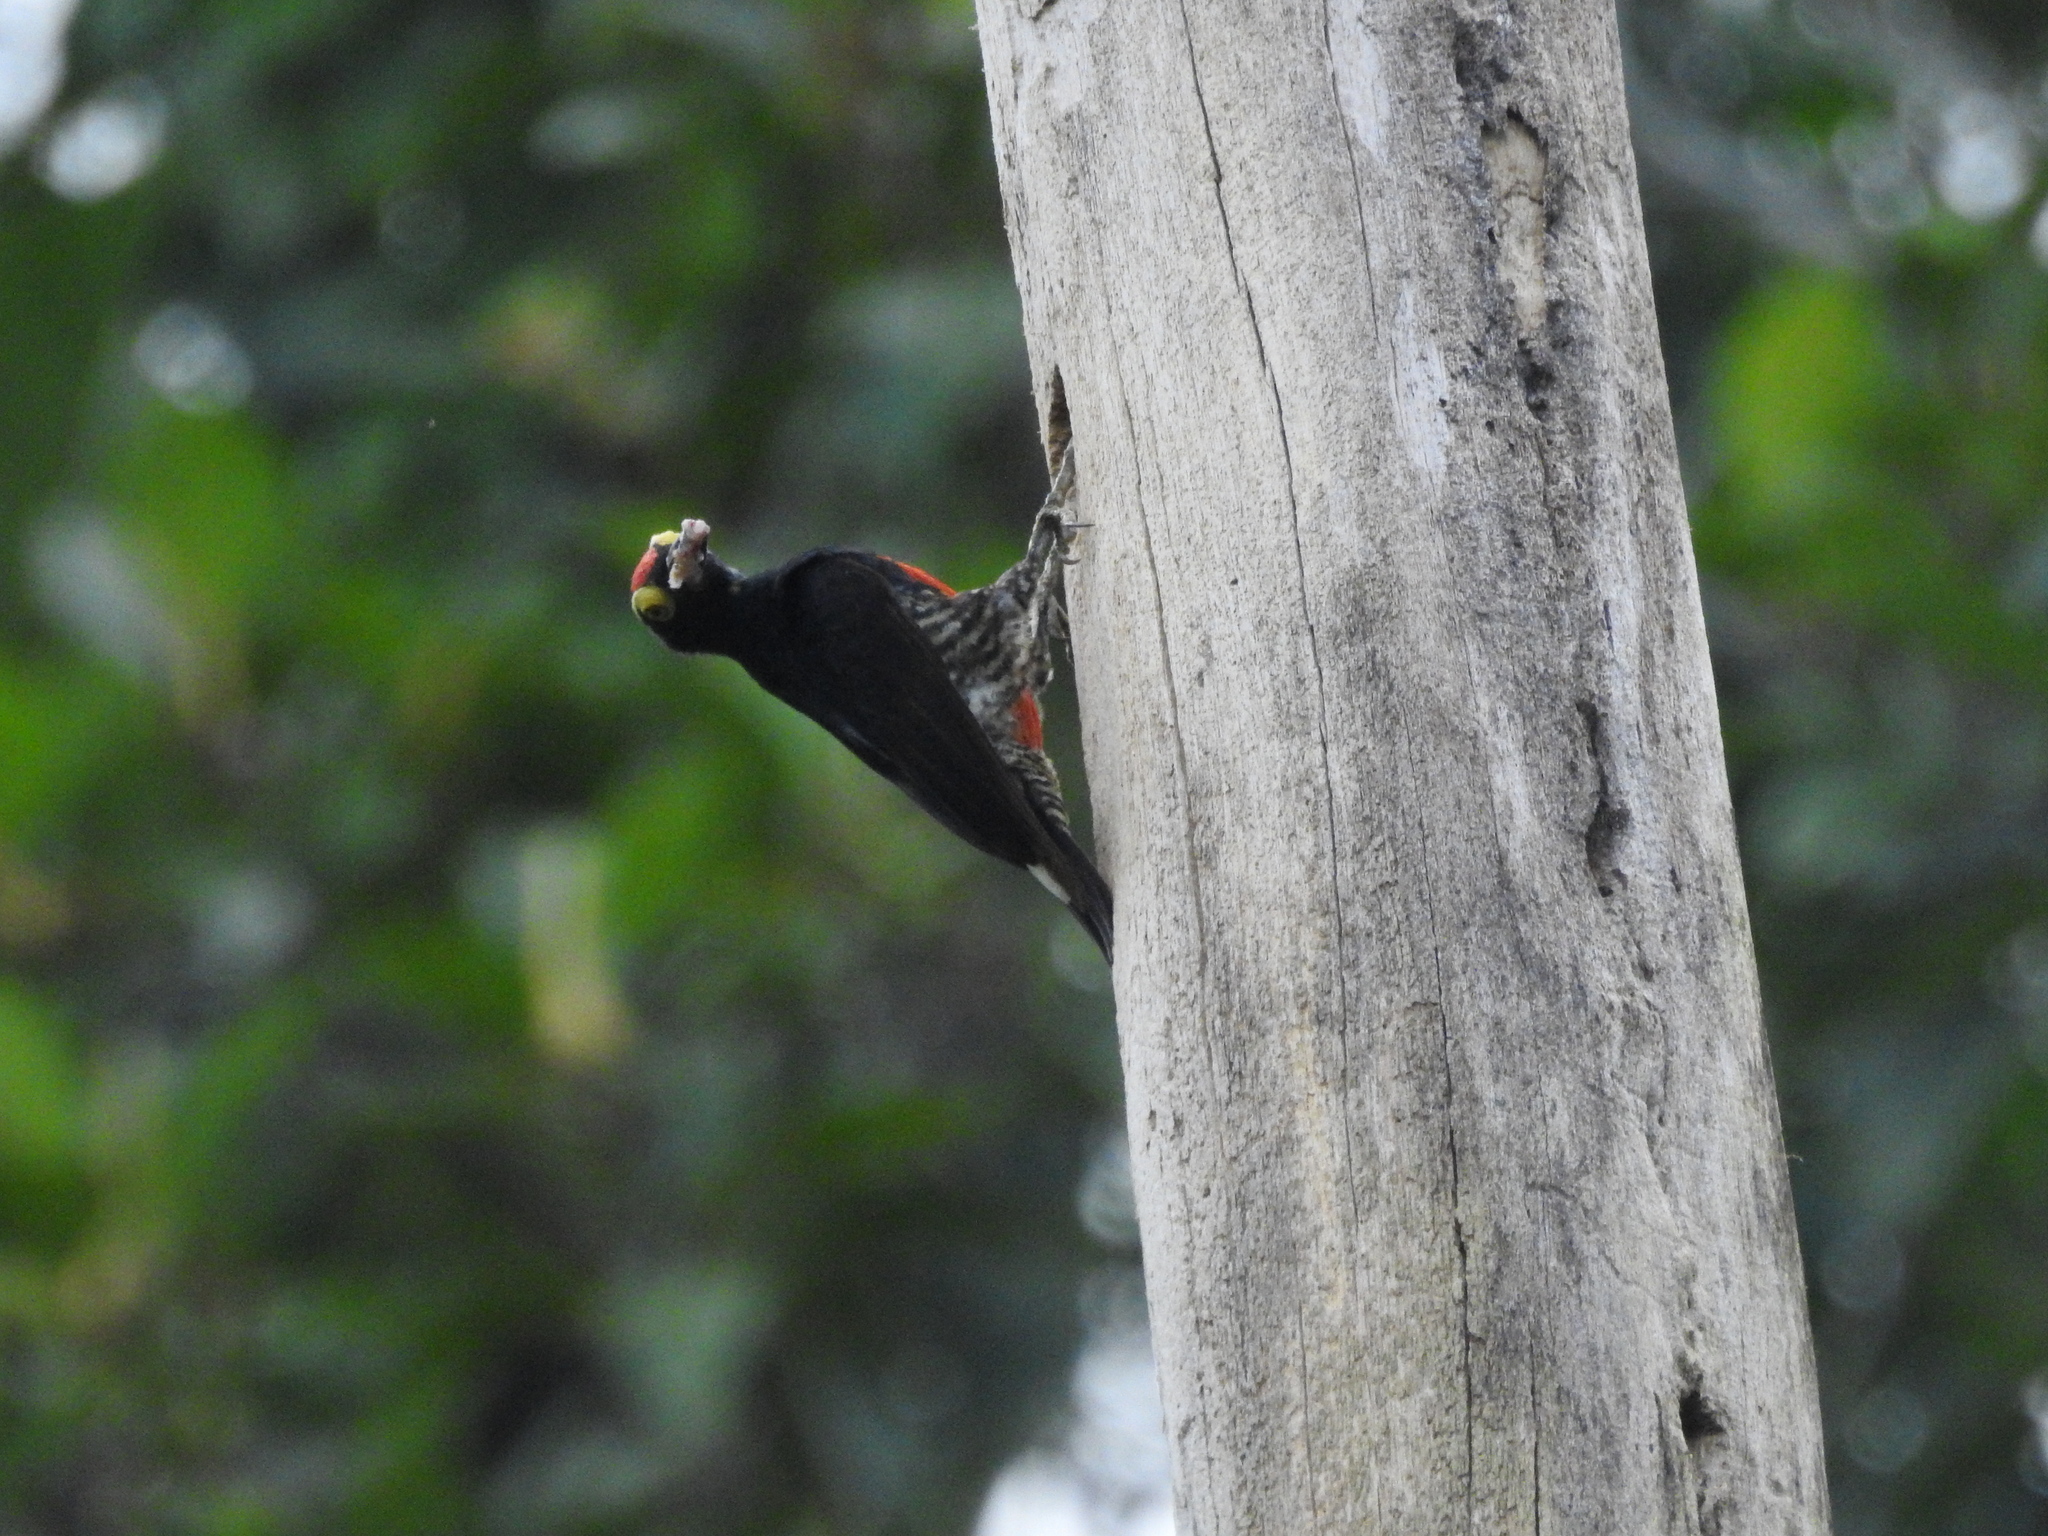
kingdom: Animalia
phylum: Chordata
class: Aves
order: Piciformes
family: Picidae
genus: Melanerpes
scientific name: Melanerpes cruentatus
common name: Yellow-tufted woodpecker
